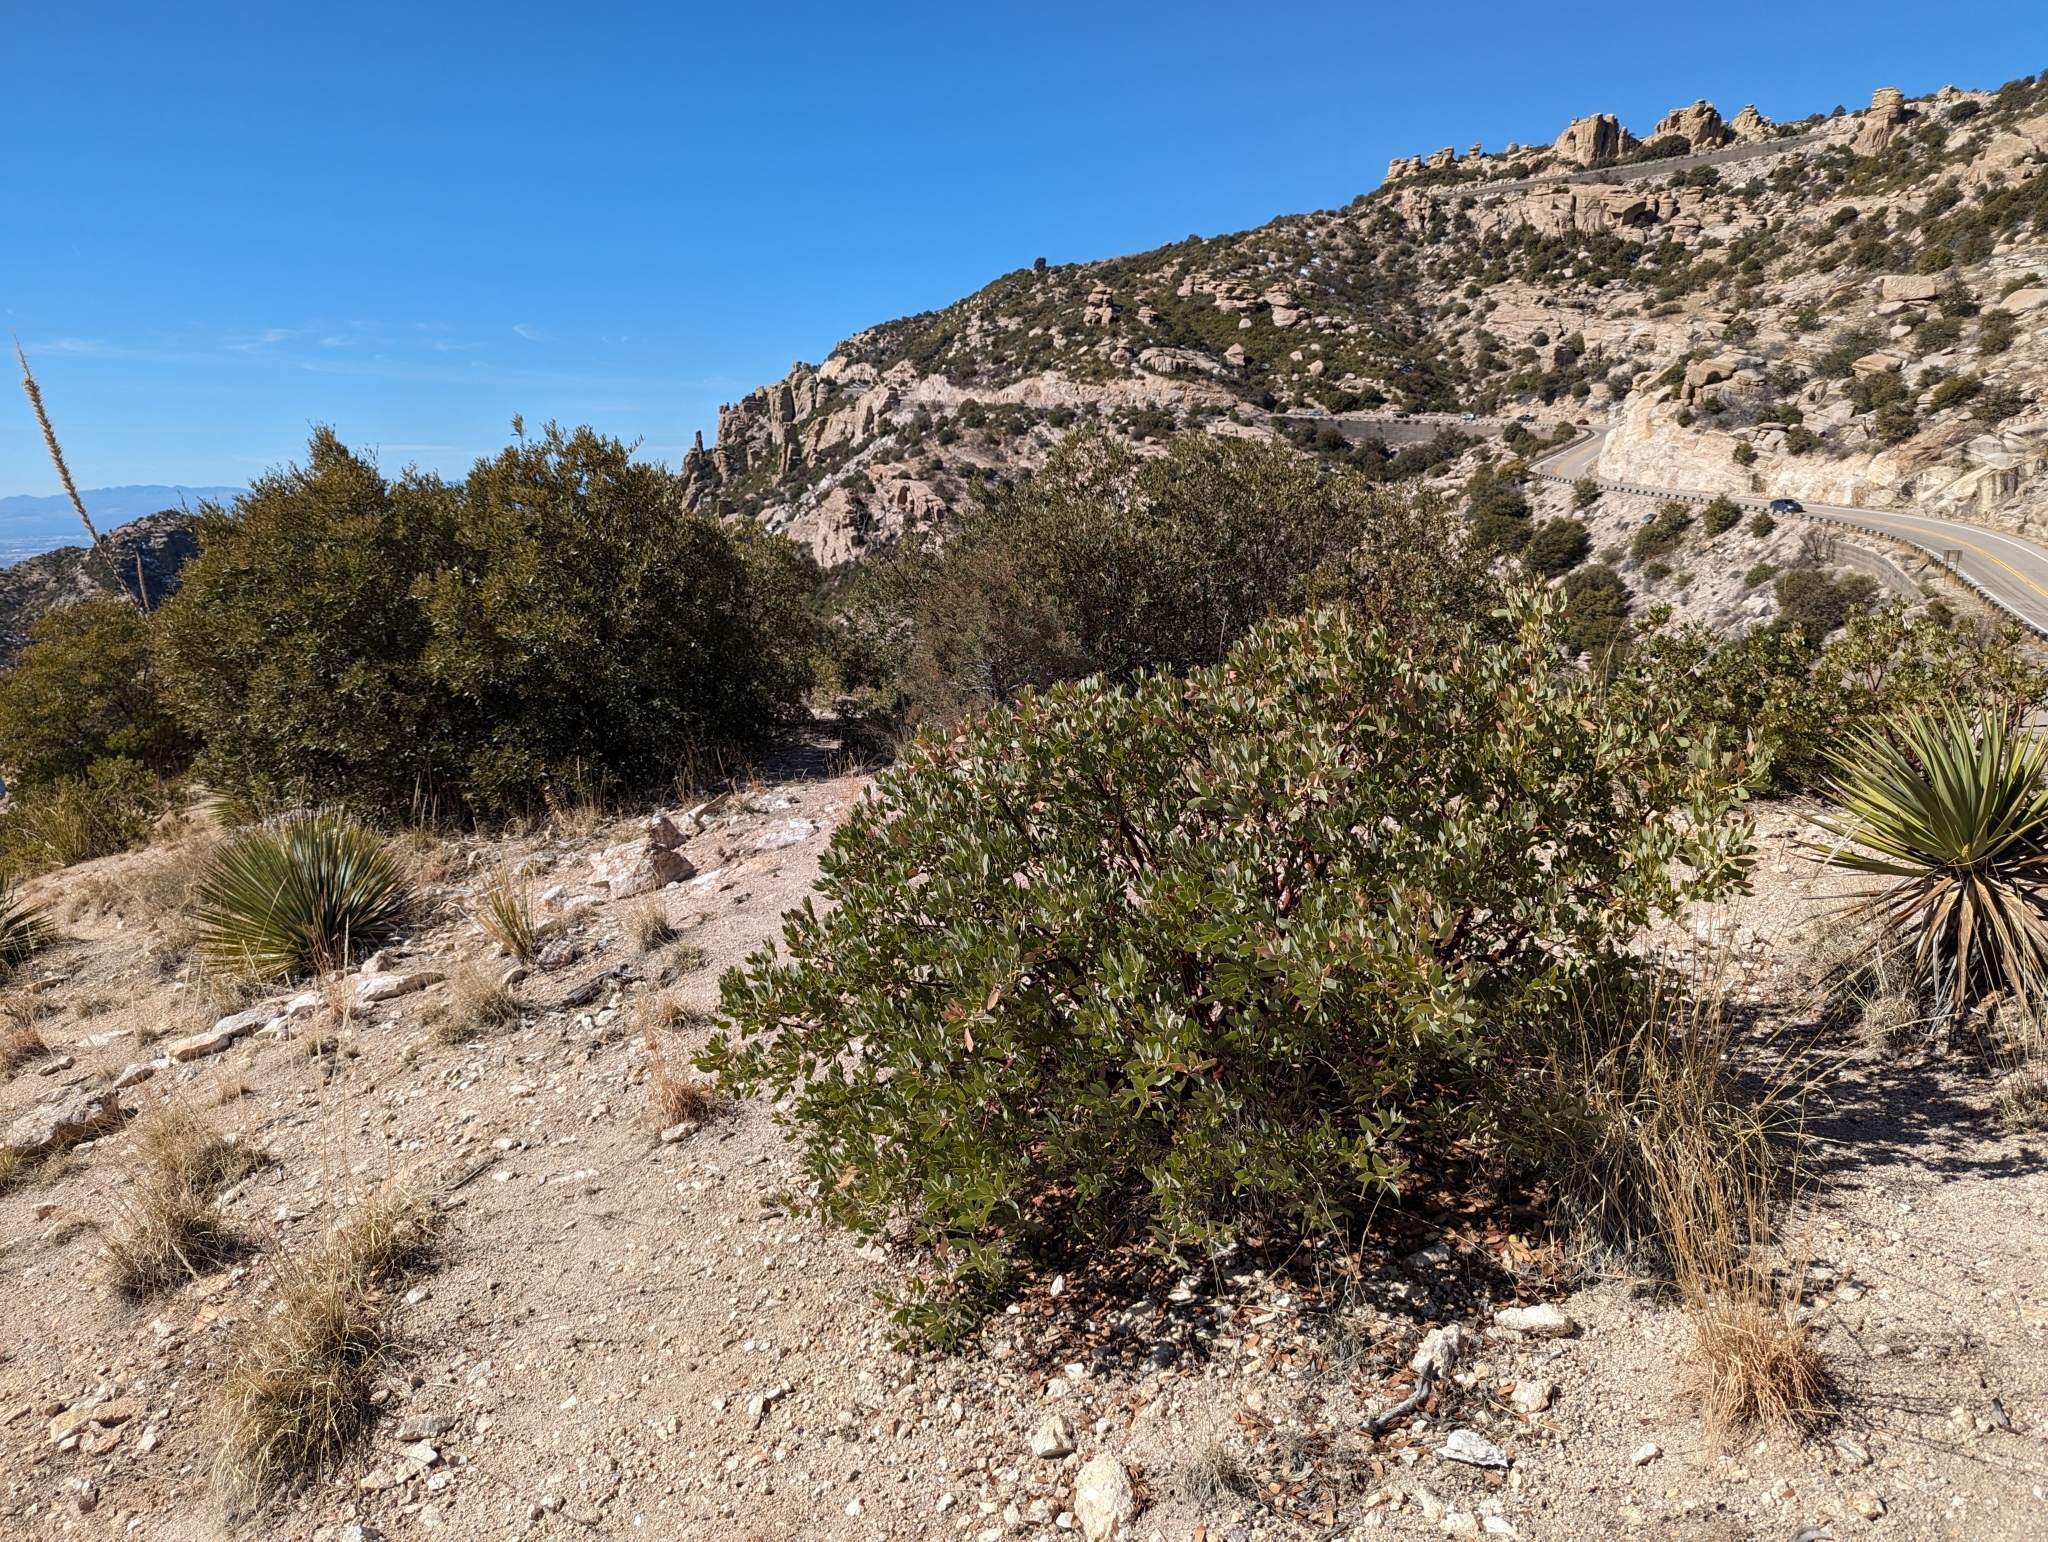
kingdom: Plantae
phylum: Tracheophyta
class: Magnoliopsida
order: Ericales
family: Ericaceae
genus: Arctostaphylos
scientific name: Arctostaphylos pringlei
